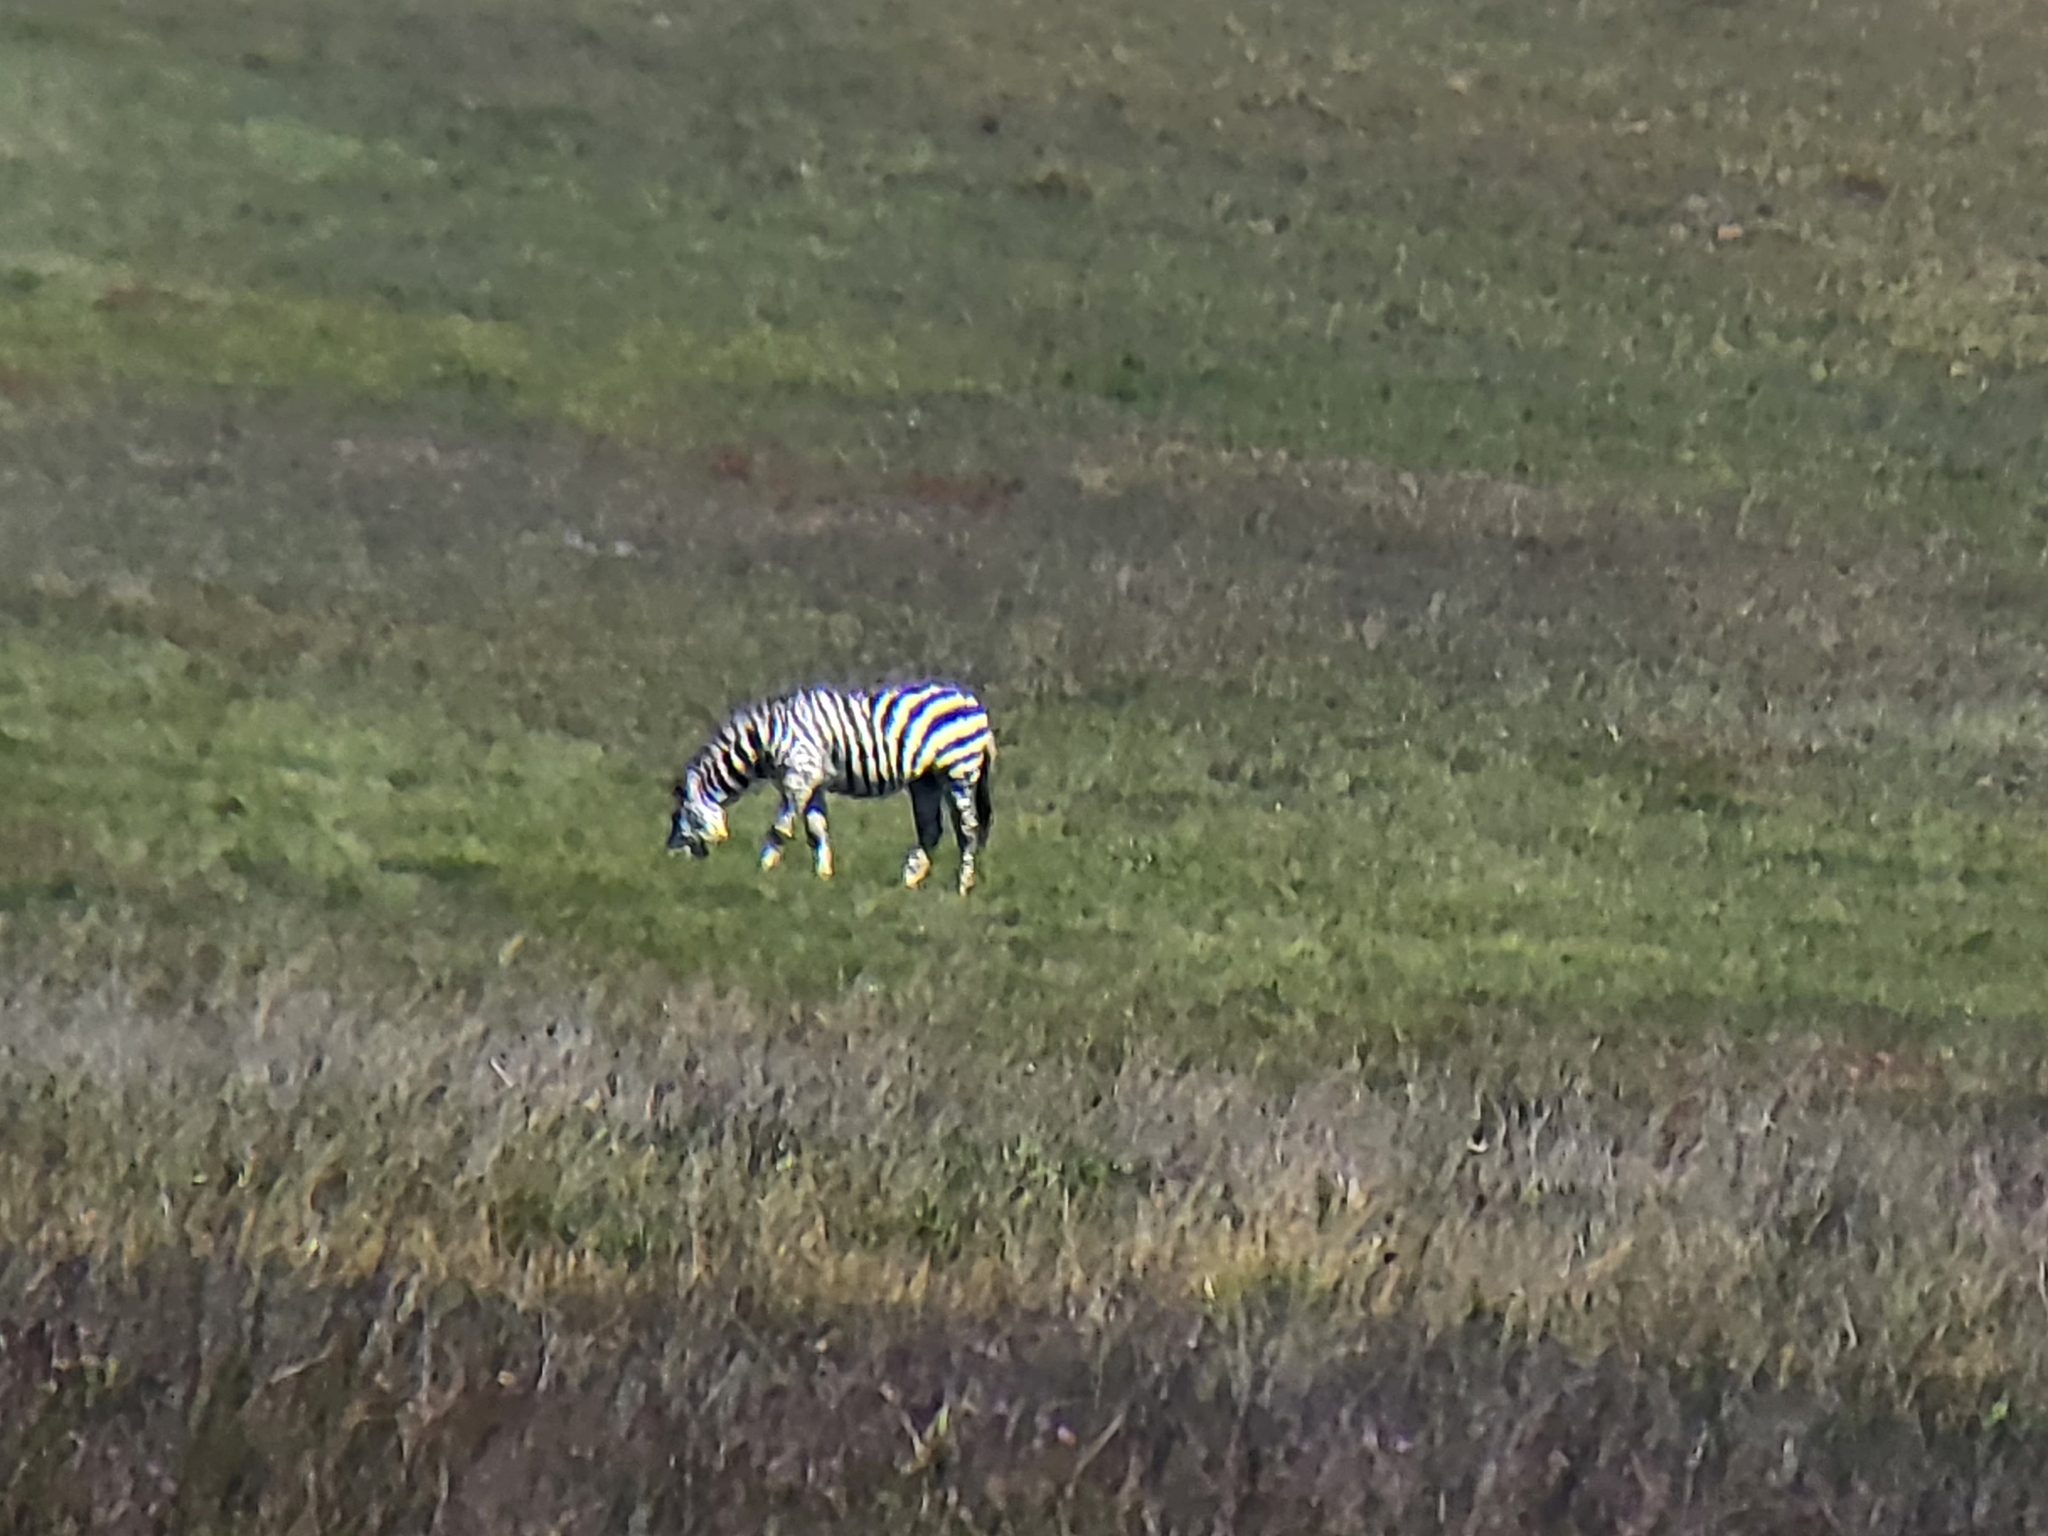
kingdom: Animalia
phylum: Chordata
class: Mammalia
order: Perissodactyla
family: Equidae
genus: Equus
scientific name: Equus quagga
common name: Plains zebra
